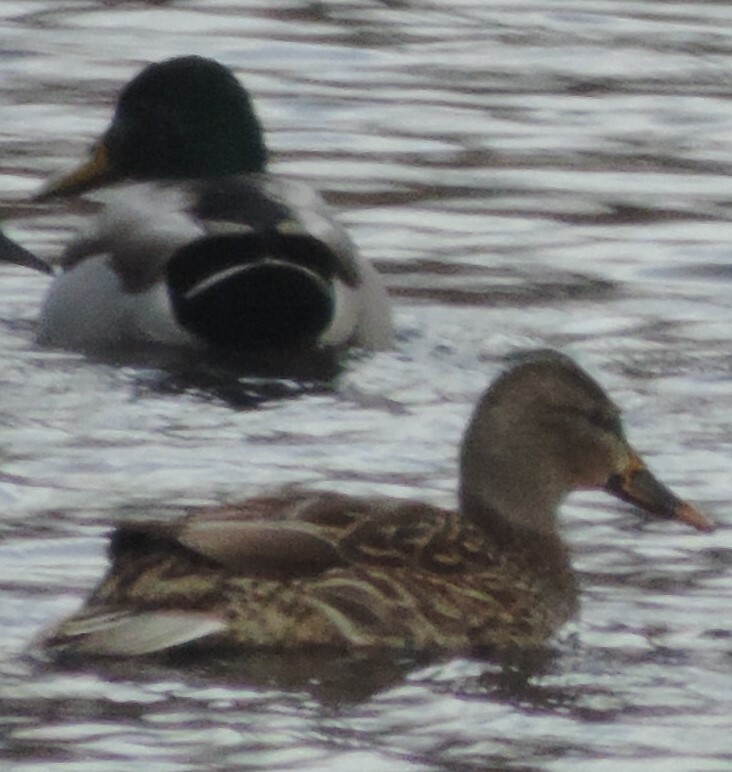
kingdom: Animalia
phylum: Chordata
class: Aves
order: Anseriformes
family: Anatidae
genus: Anas
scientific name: Anas platyrhynchos
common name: Mallard
